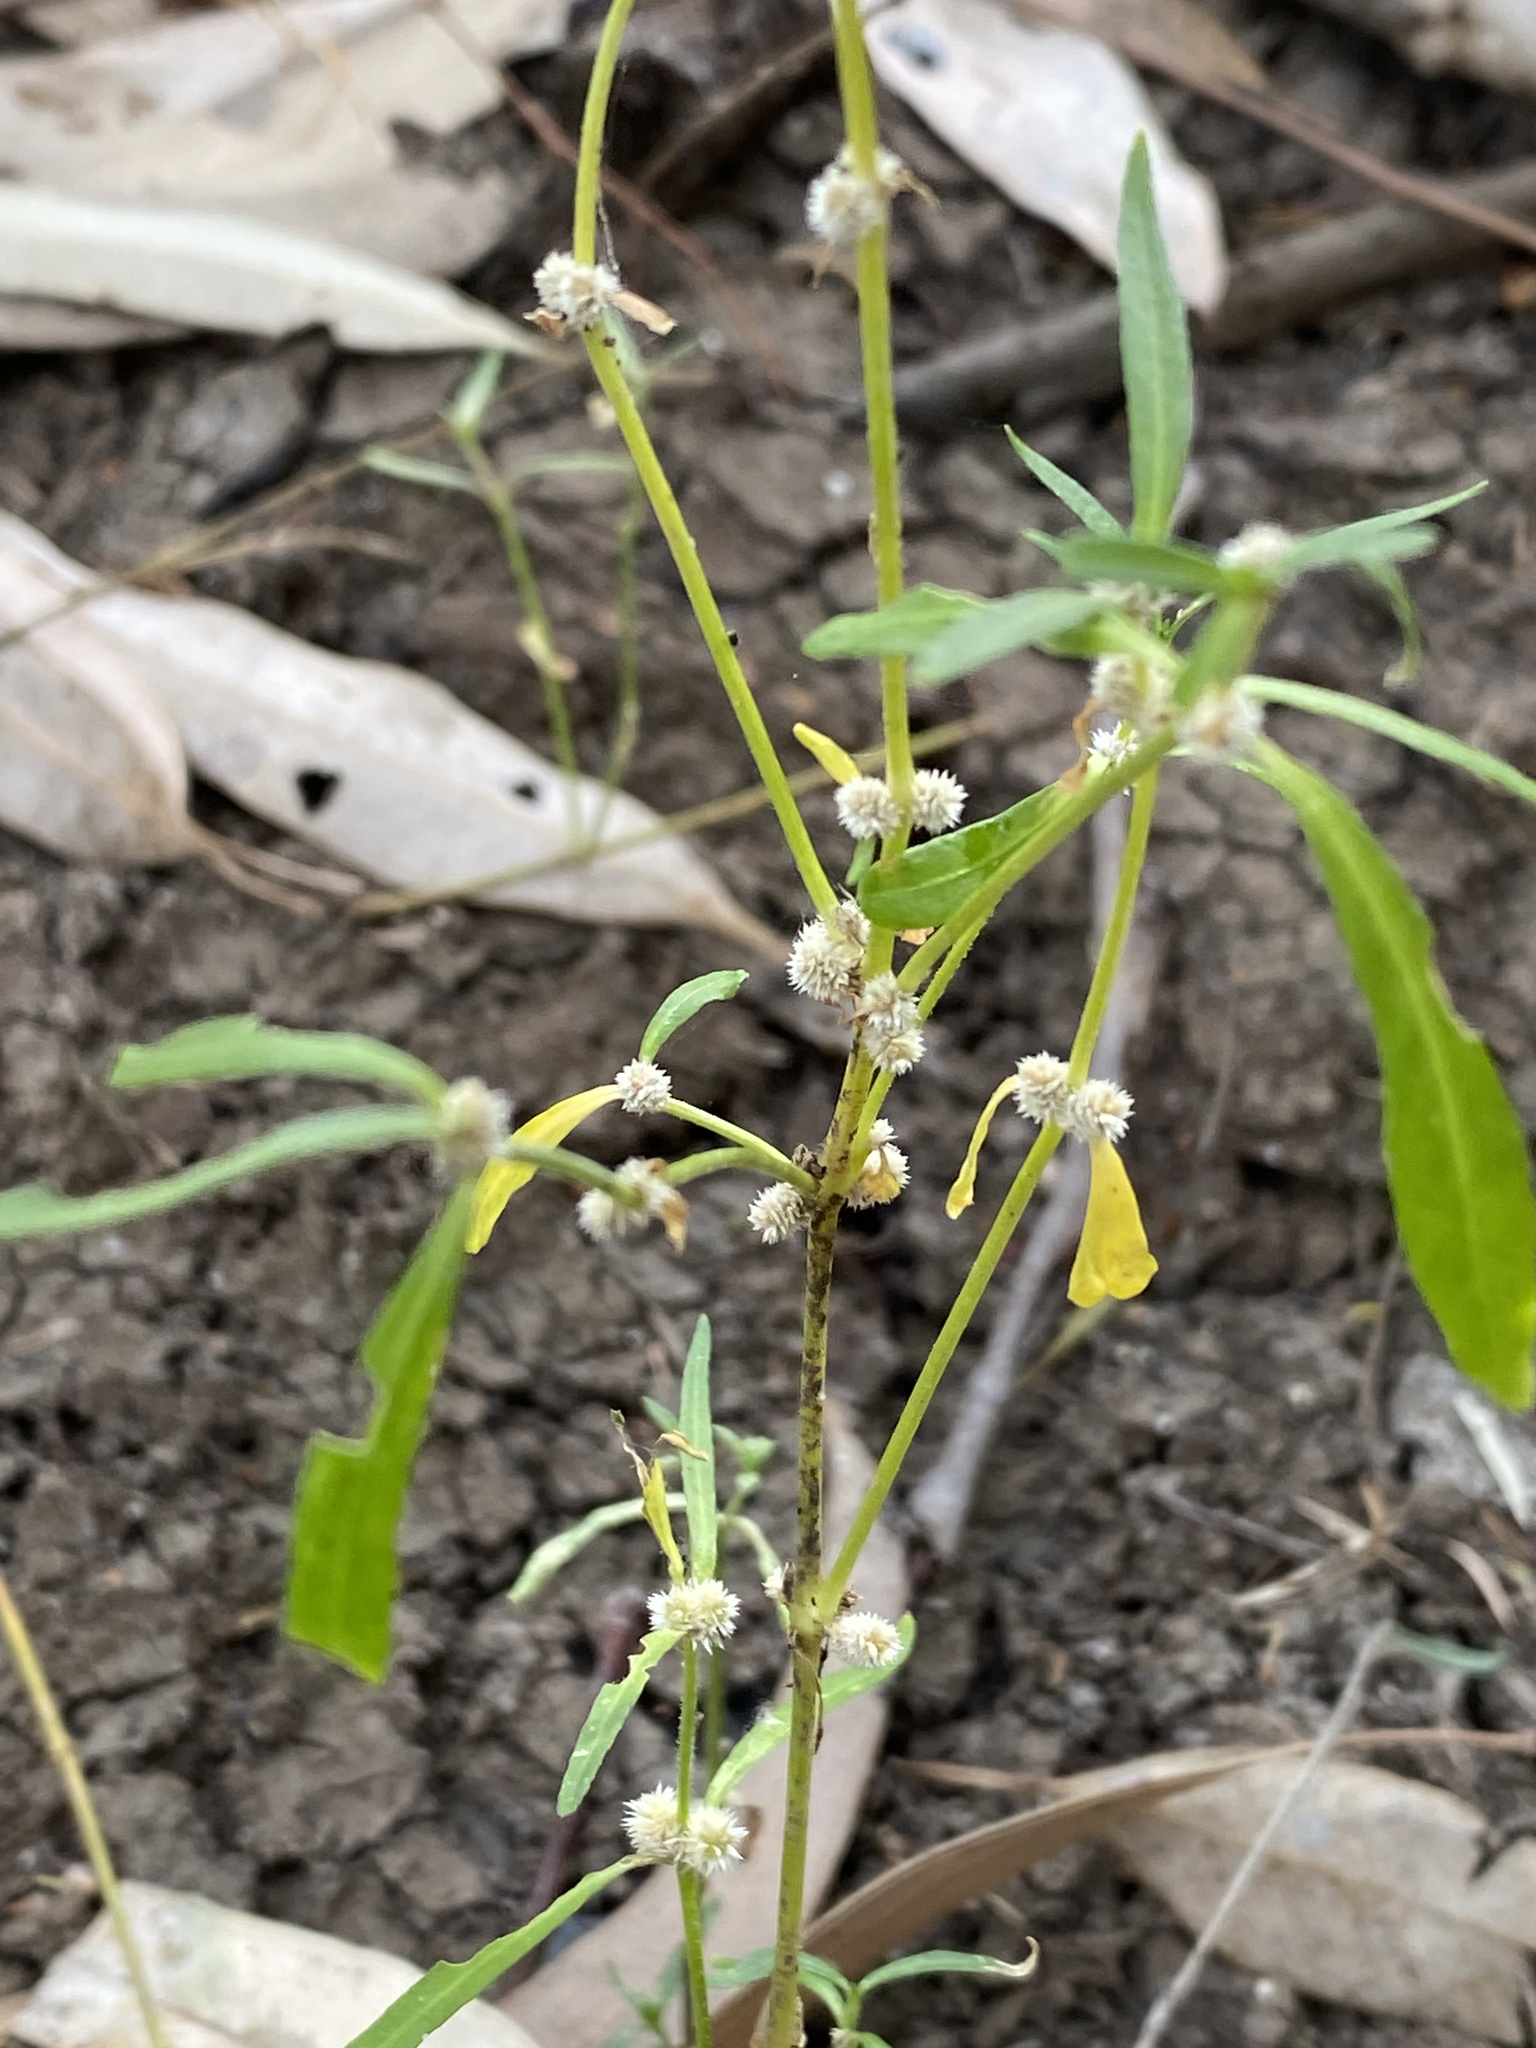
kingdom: Plantae
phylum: Tracheophyta
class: Magnoliopsida
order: Caryophyllales
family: Amaranthaceae
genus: Alternanthera
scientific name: Alternanthera denticulata
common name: Lesser joyweed
